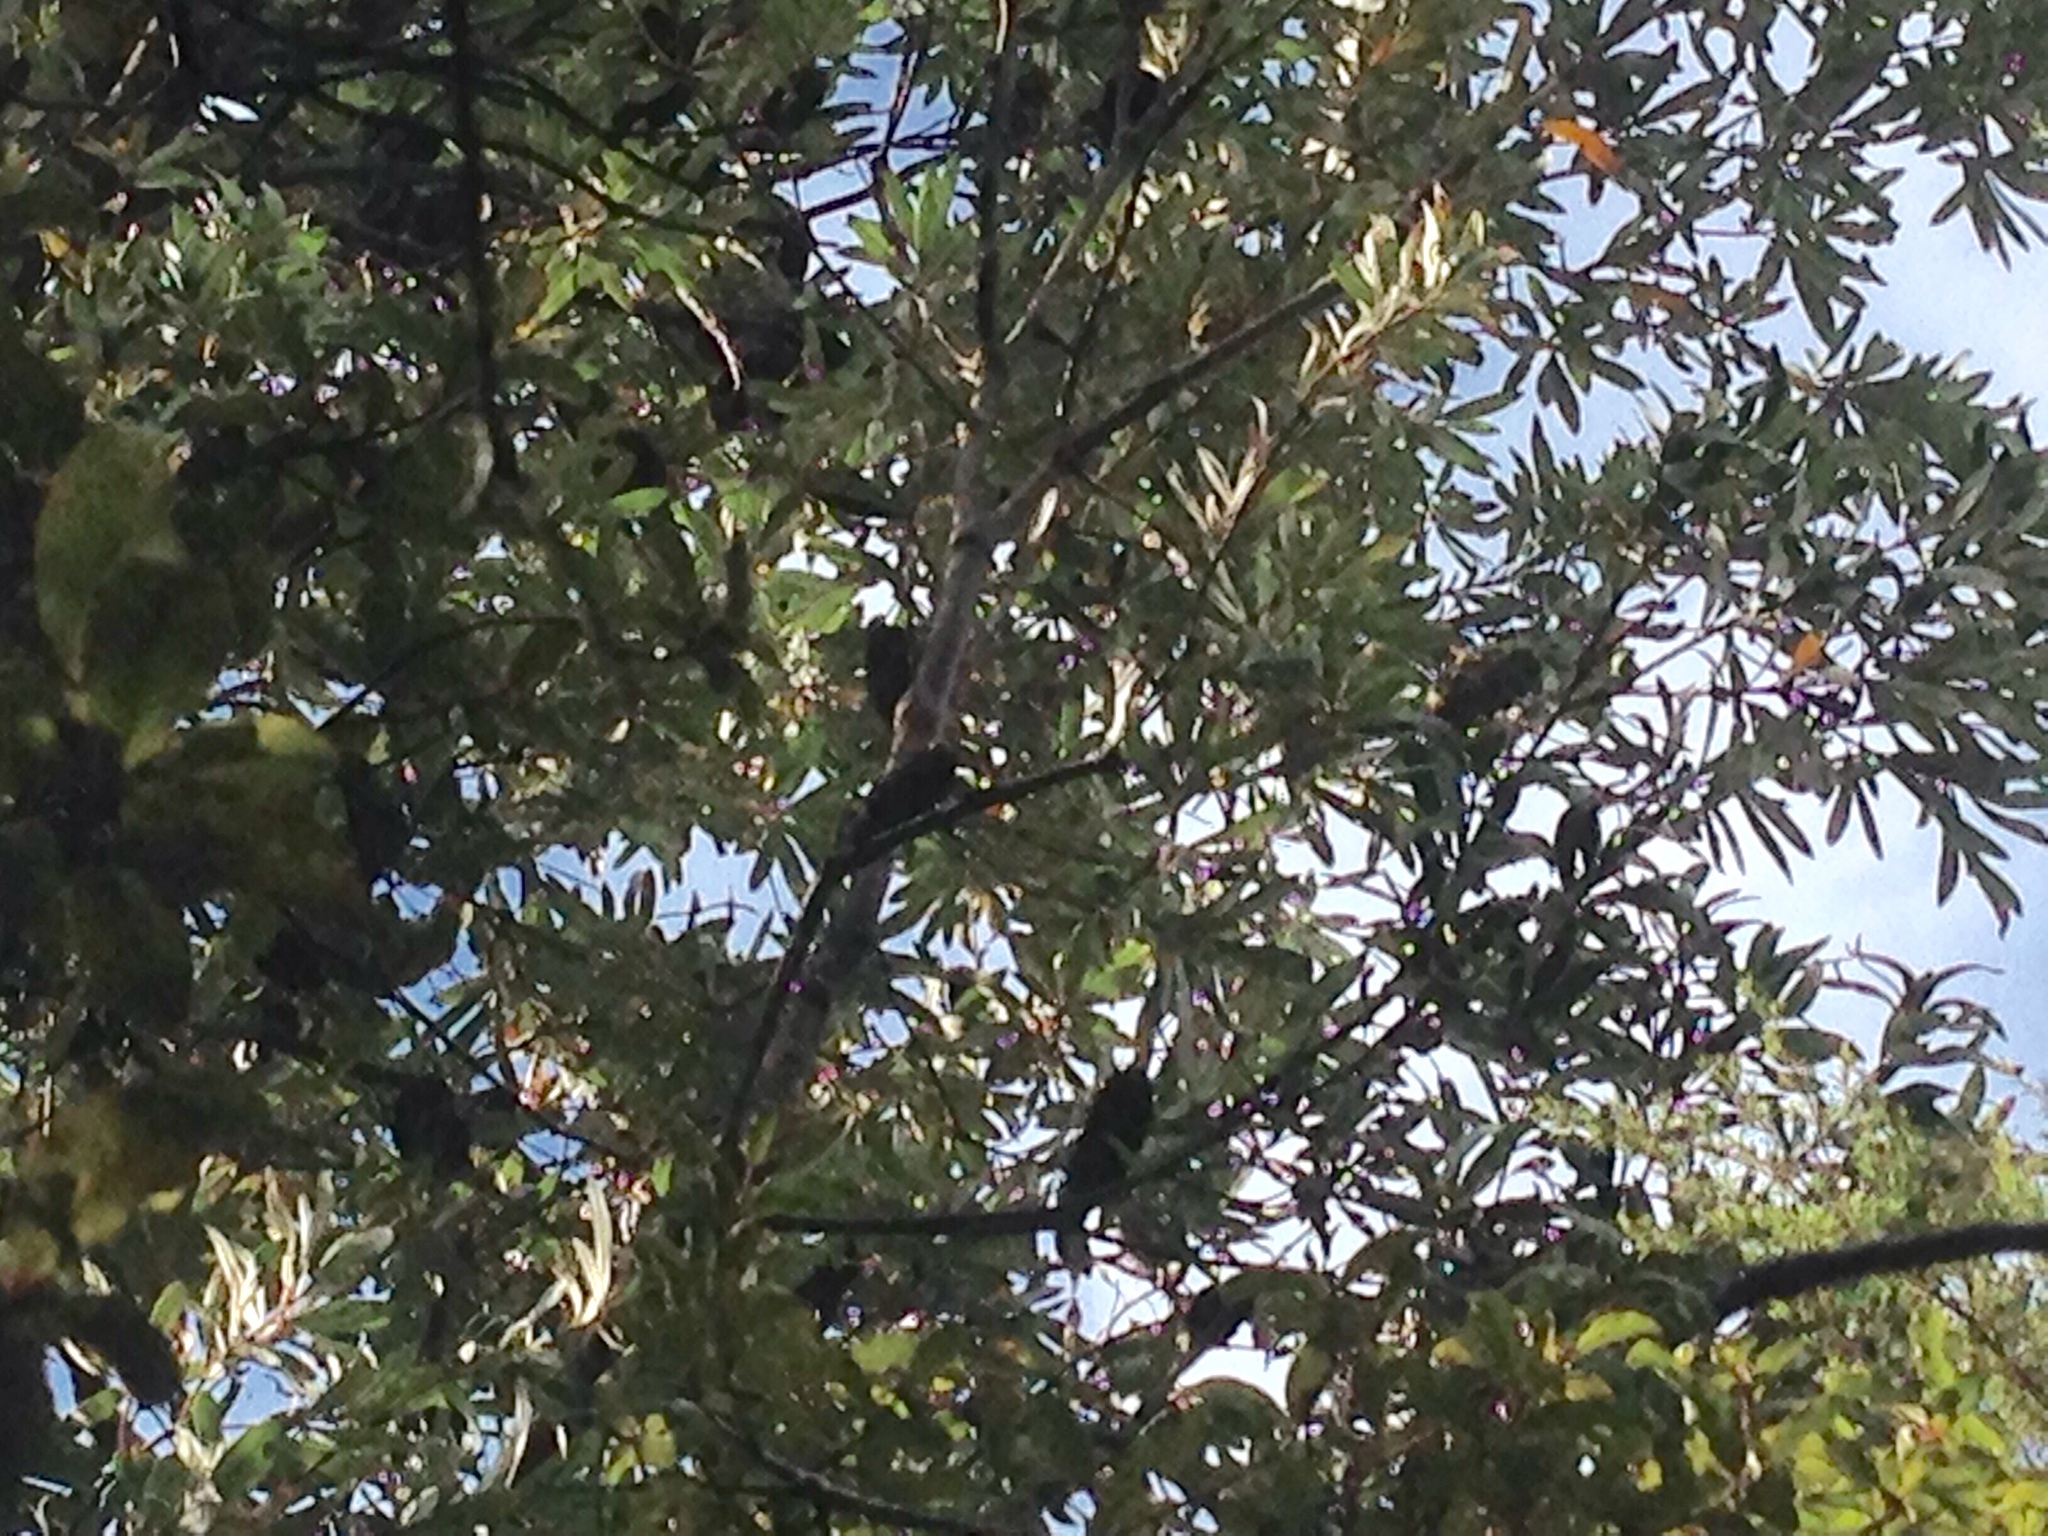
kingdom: Plantae
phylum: Tracheophyta
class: Magnoliopsida
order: Proteales
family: Proteaceae
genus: Banksia
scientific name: Banksia integrifolia
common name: White-honeysuckle
